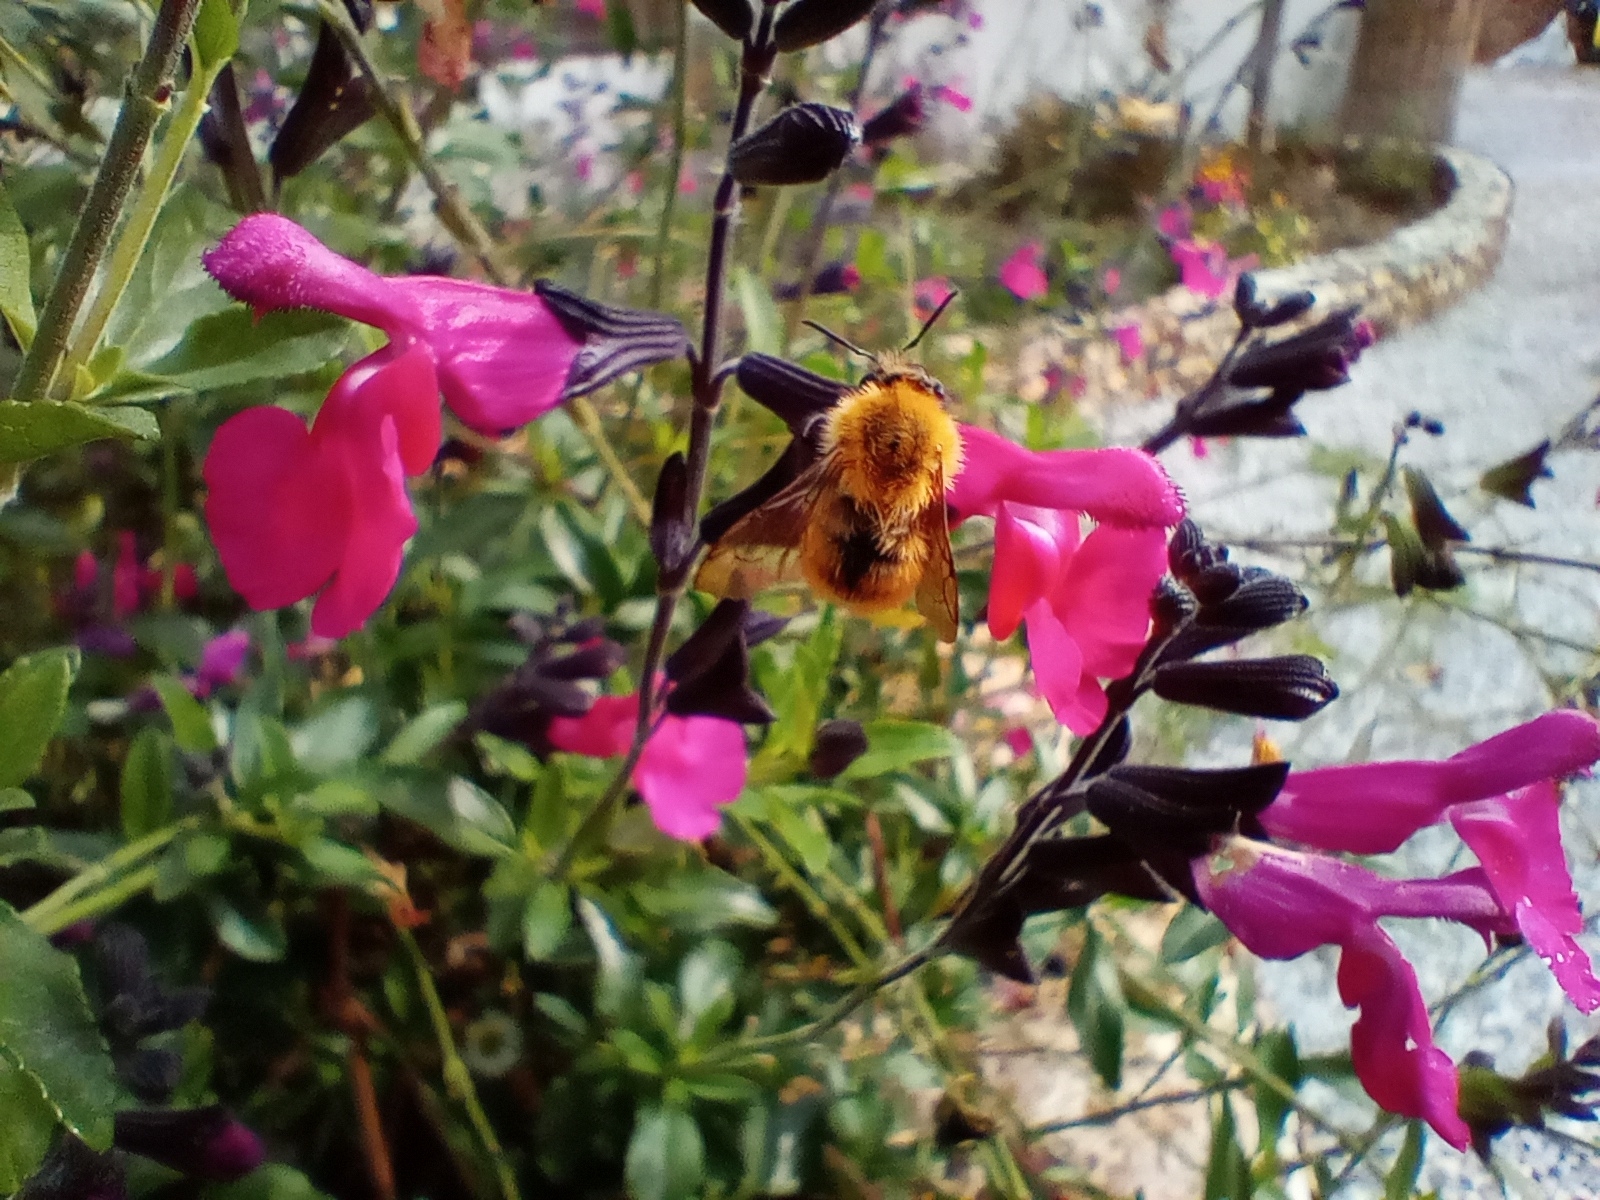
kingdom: Animalia
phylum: Arthropoda
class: Insecta
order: Hymenoptera
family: Apidae
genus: Bombus
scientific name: Bombus pascuorum
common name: Common carder bee
